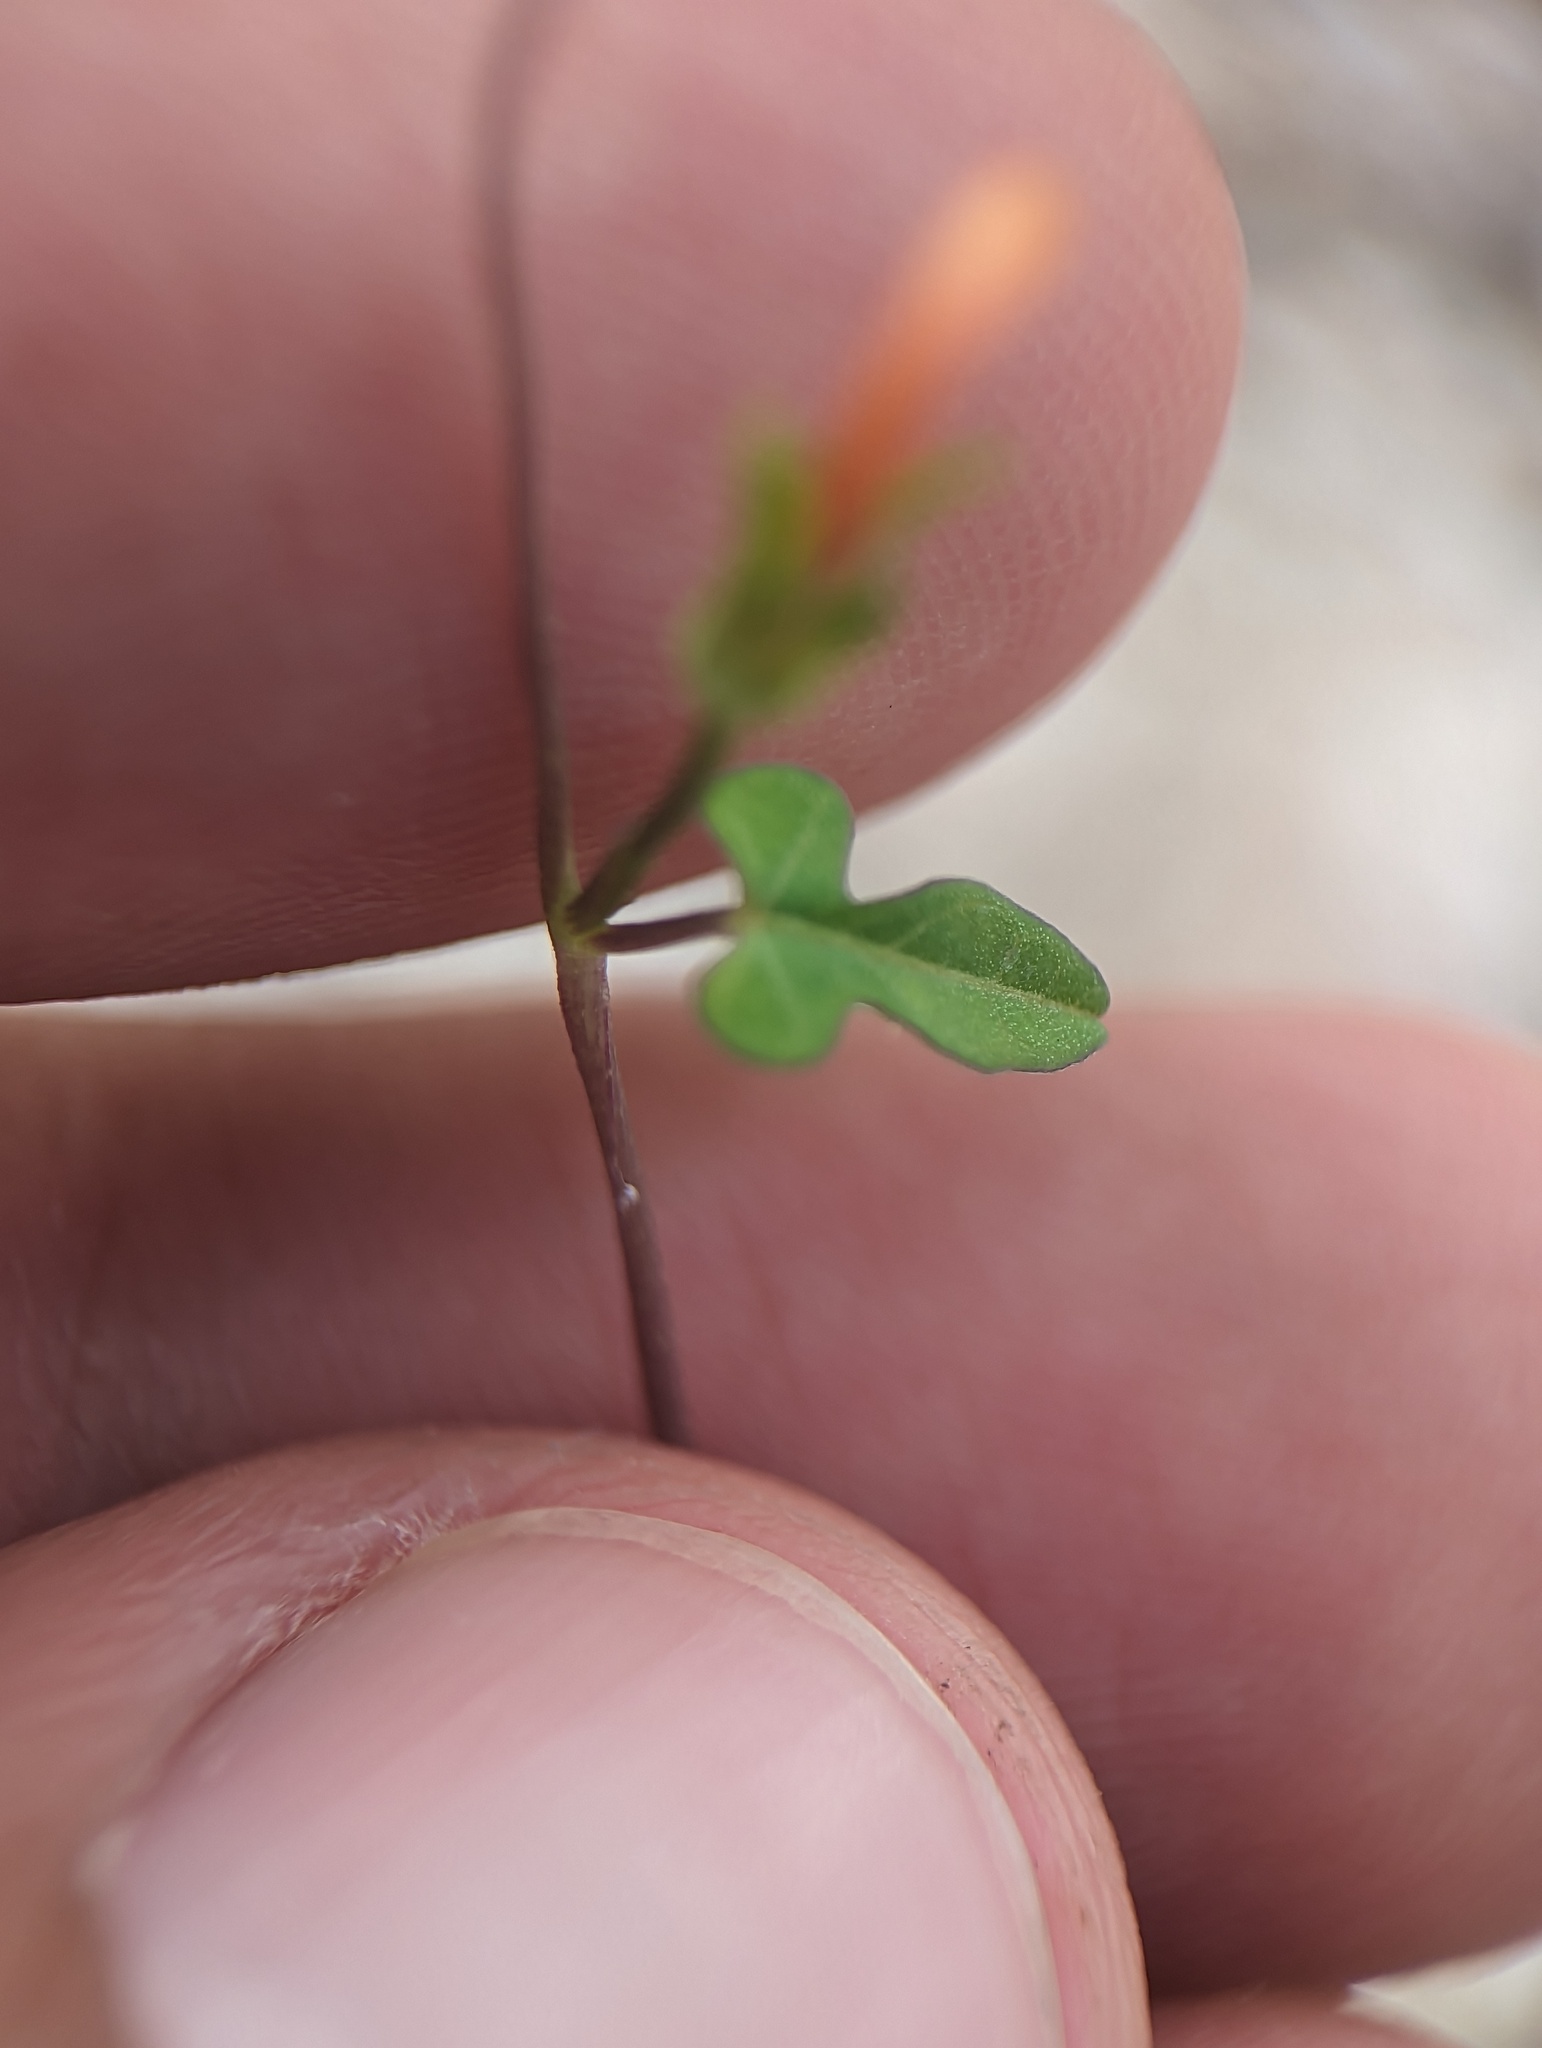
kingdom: Plantae
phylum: Tracheophyta
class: Magnoliopsida
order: Solanales
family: Convolvulaceae
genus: Ipomoea
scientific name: Ipomoea cristulata
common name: Trans-pecos morning-glory
